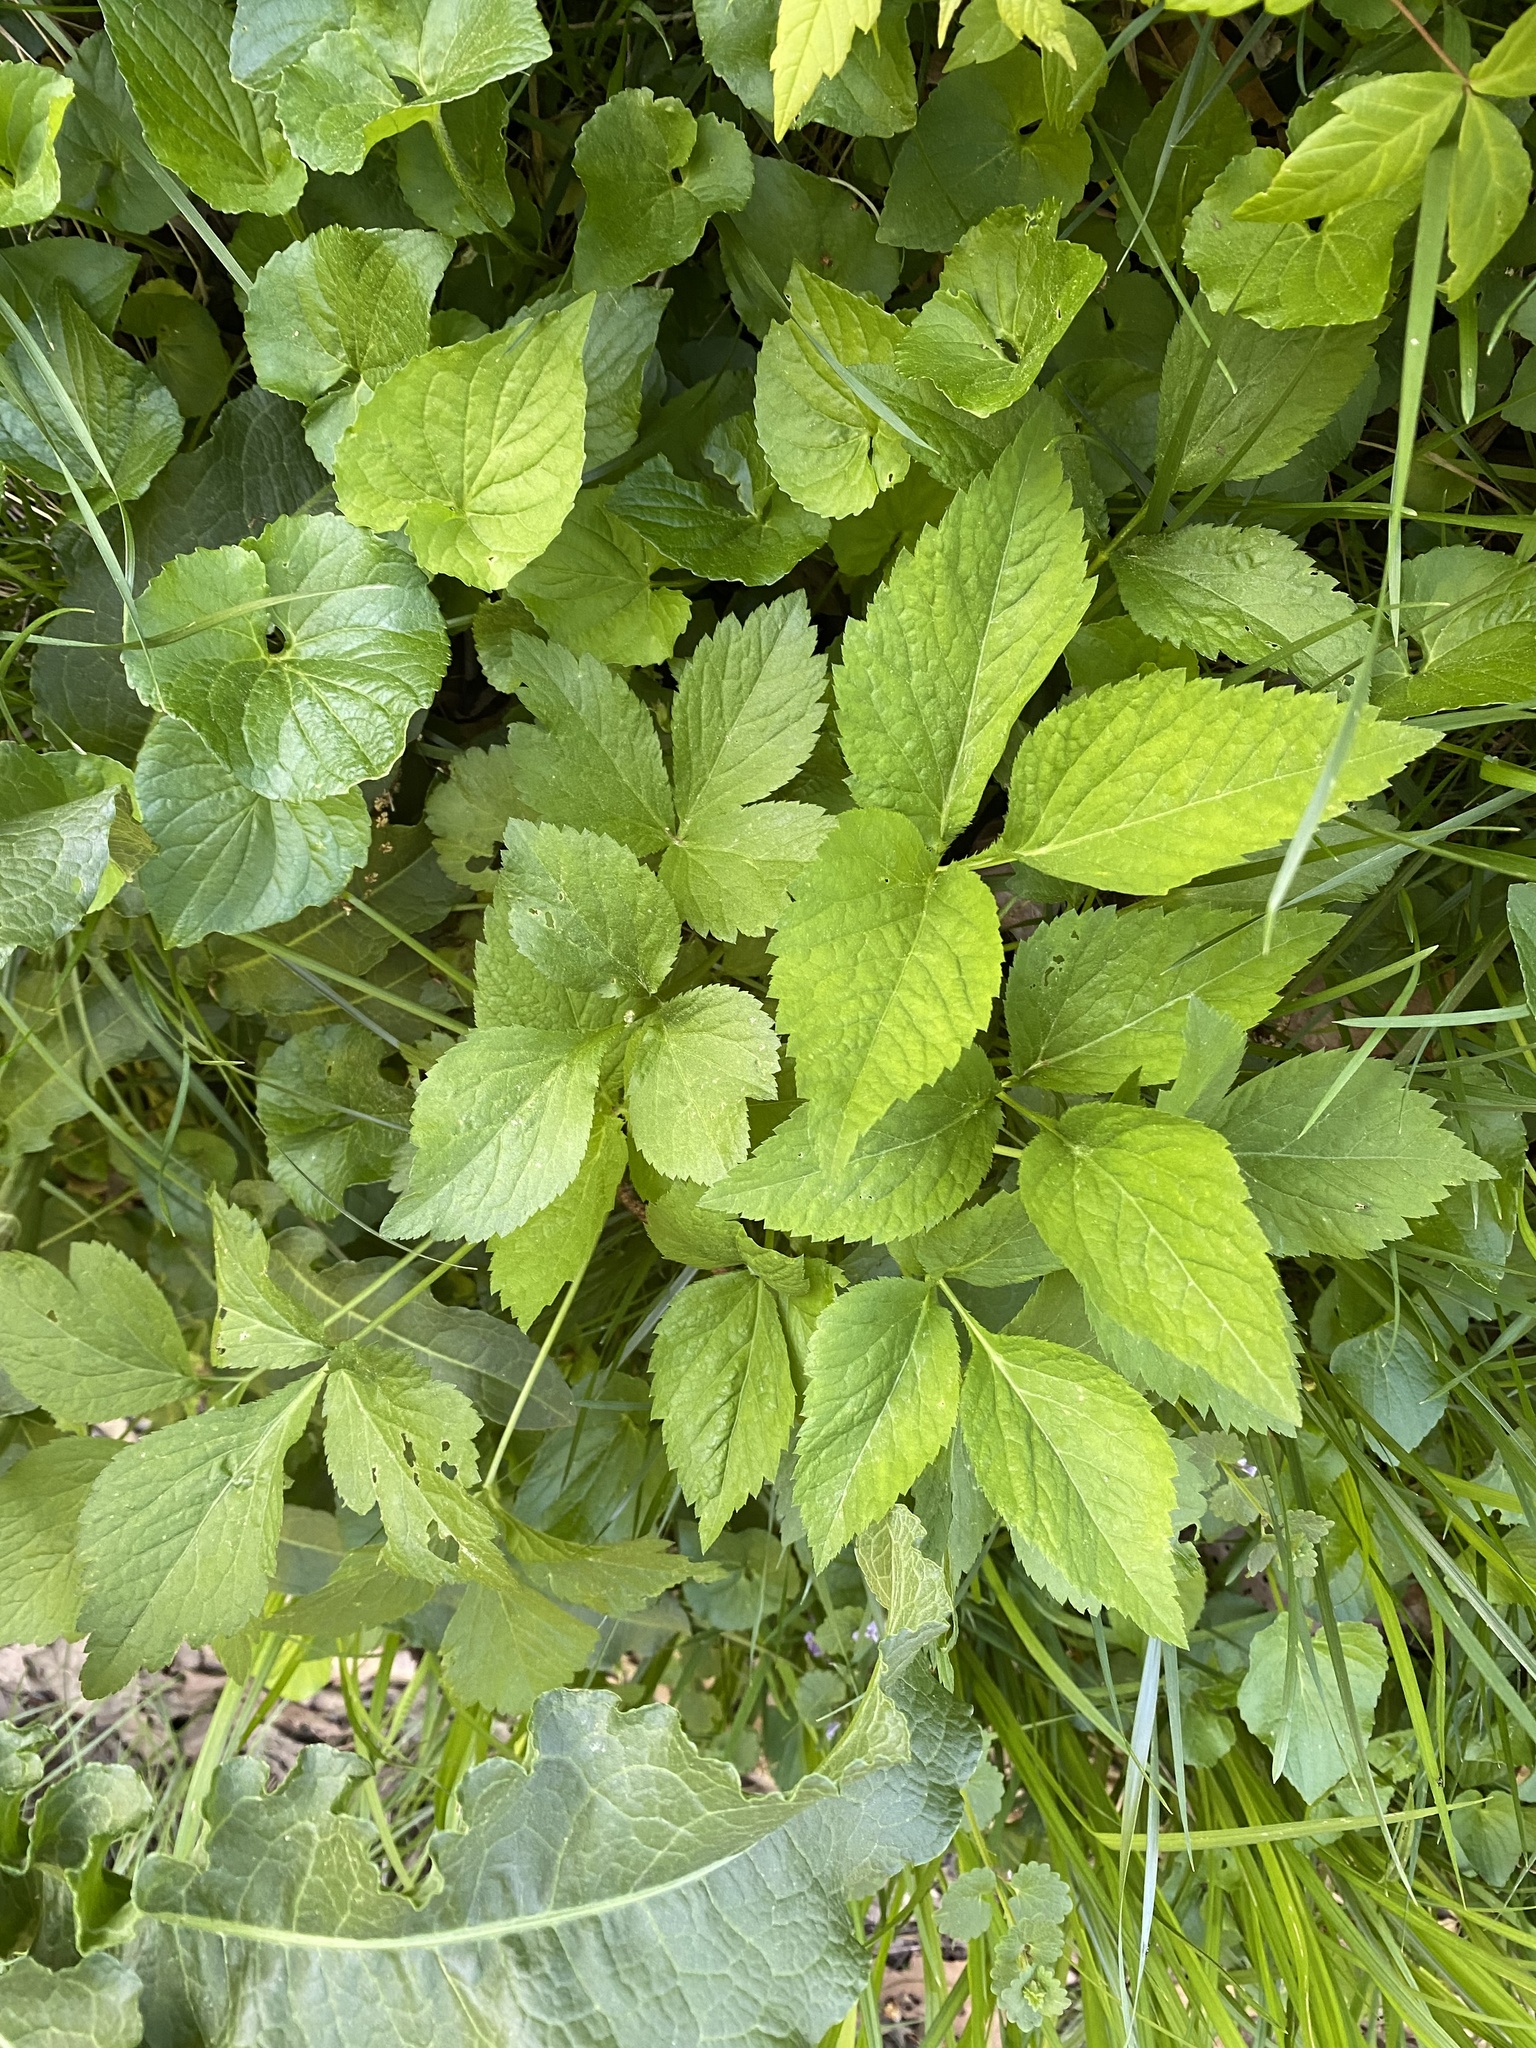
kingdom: Plantae
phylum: Tracheophyta
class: Magnoliopsida
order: Apiales
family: Apiaceae
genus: Cryptotaenia
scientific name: Cryptotaenia canadensis
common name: Honewort
